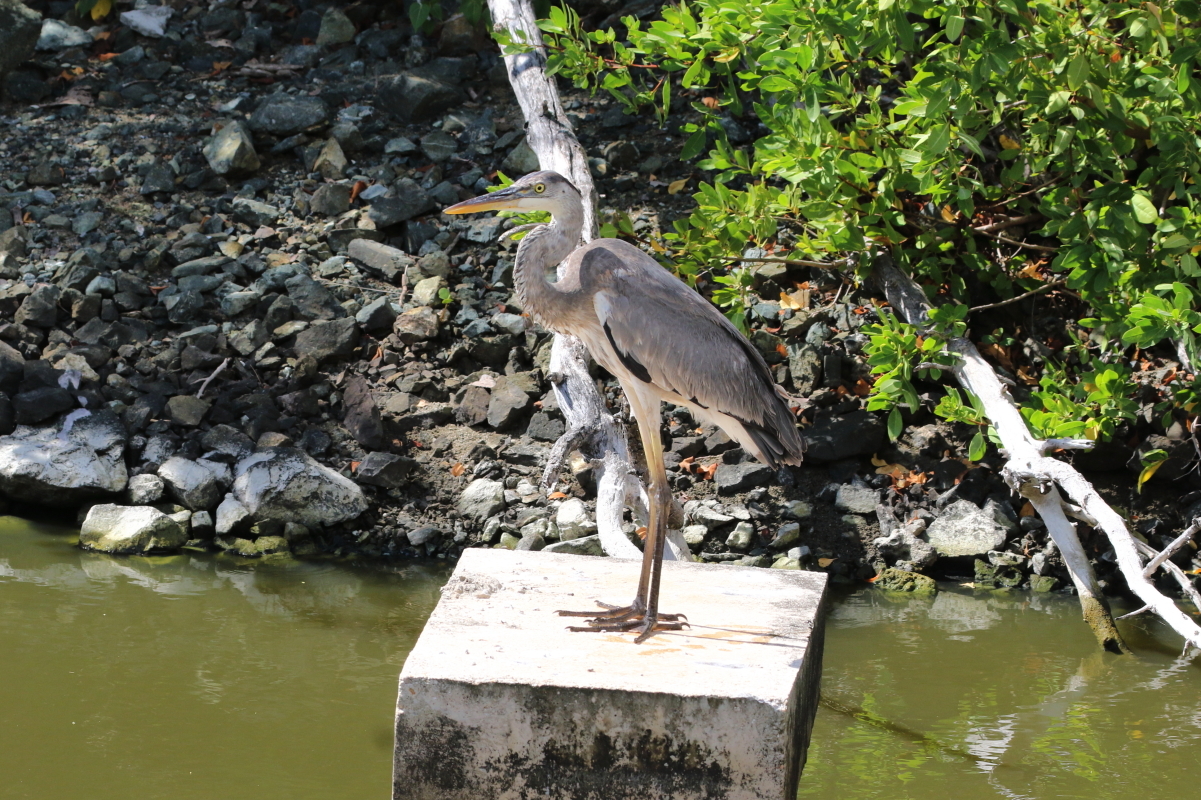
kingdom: Animalia
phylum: Chordata
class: Aves
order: Pelecaniformes
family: Ardeidae
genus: Ardea
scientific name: Ardea herodias
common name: Great blue heron
